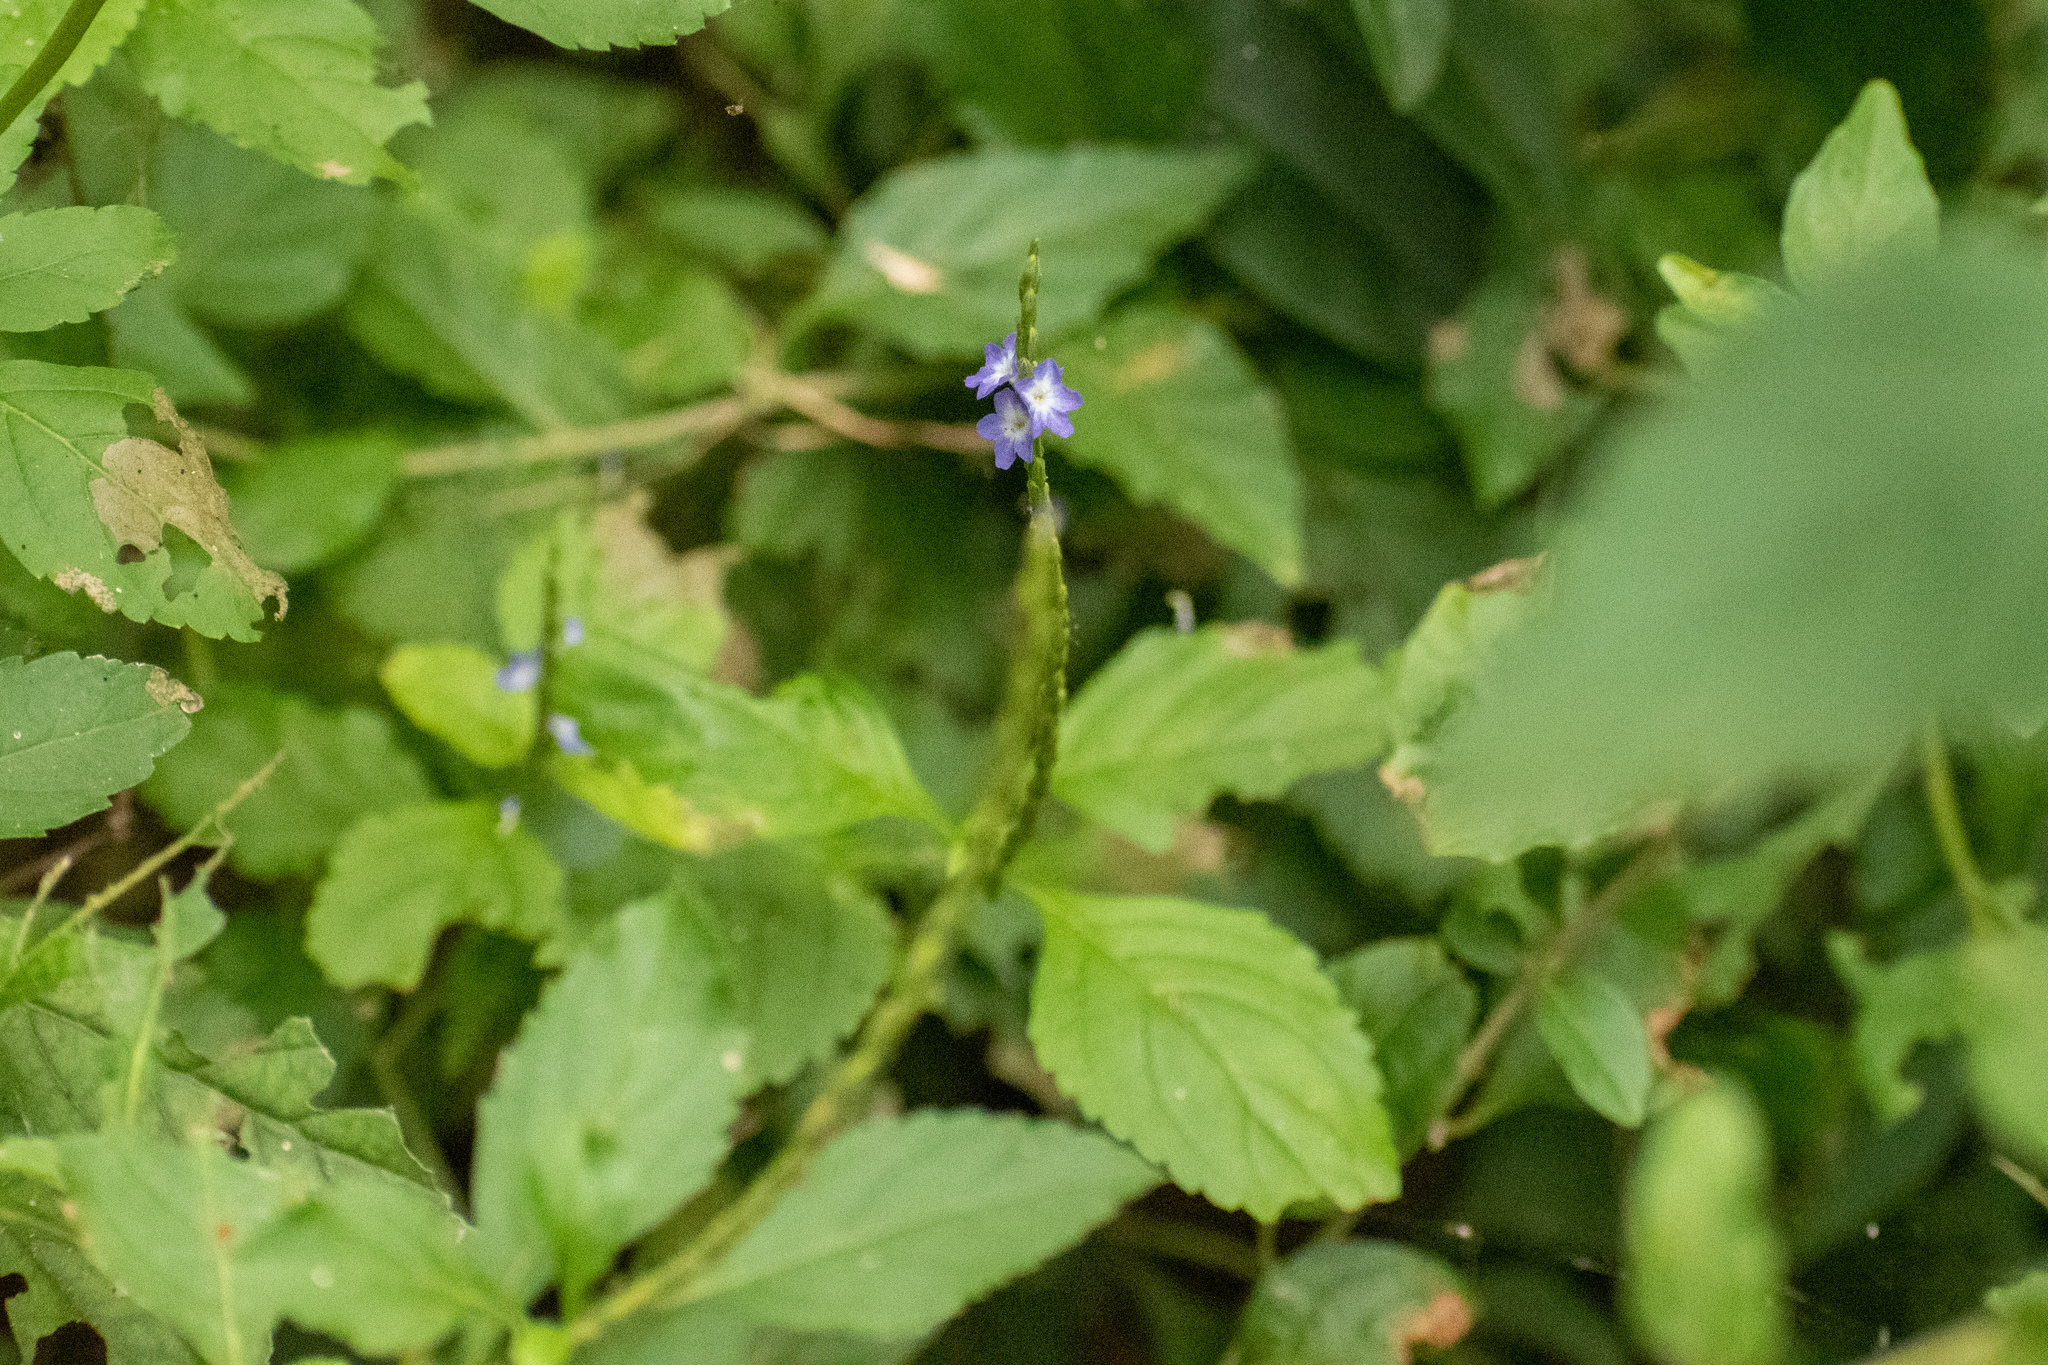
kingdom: Plantae
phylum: Tracheophyta
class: Magnoliopsida
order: Lamiales
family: Verbenaceae
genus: Stachytarpheta
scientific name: Stachytarpheta cayennensis
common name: Cayenne porterweed
